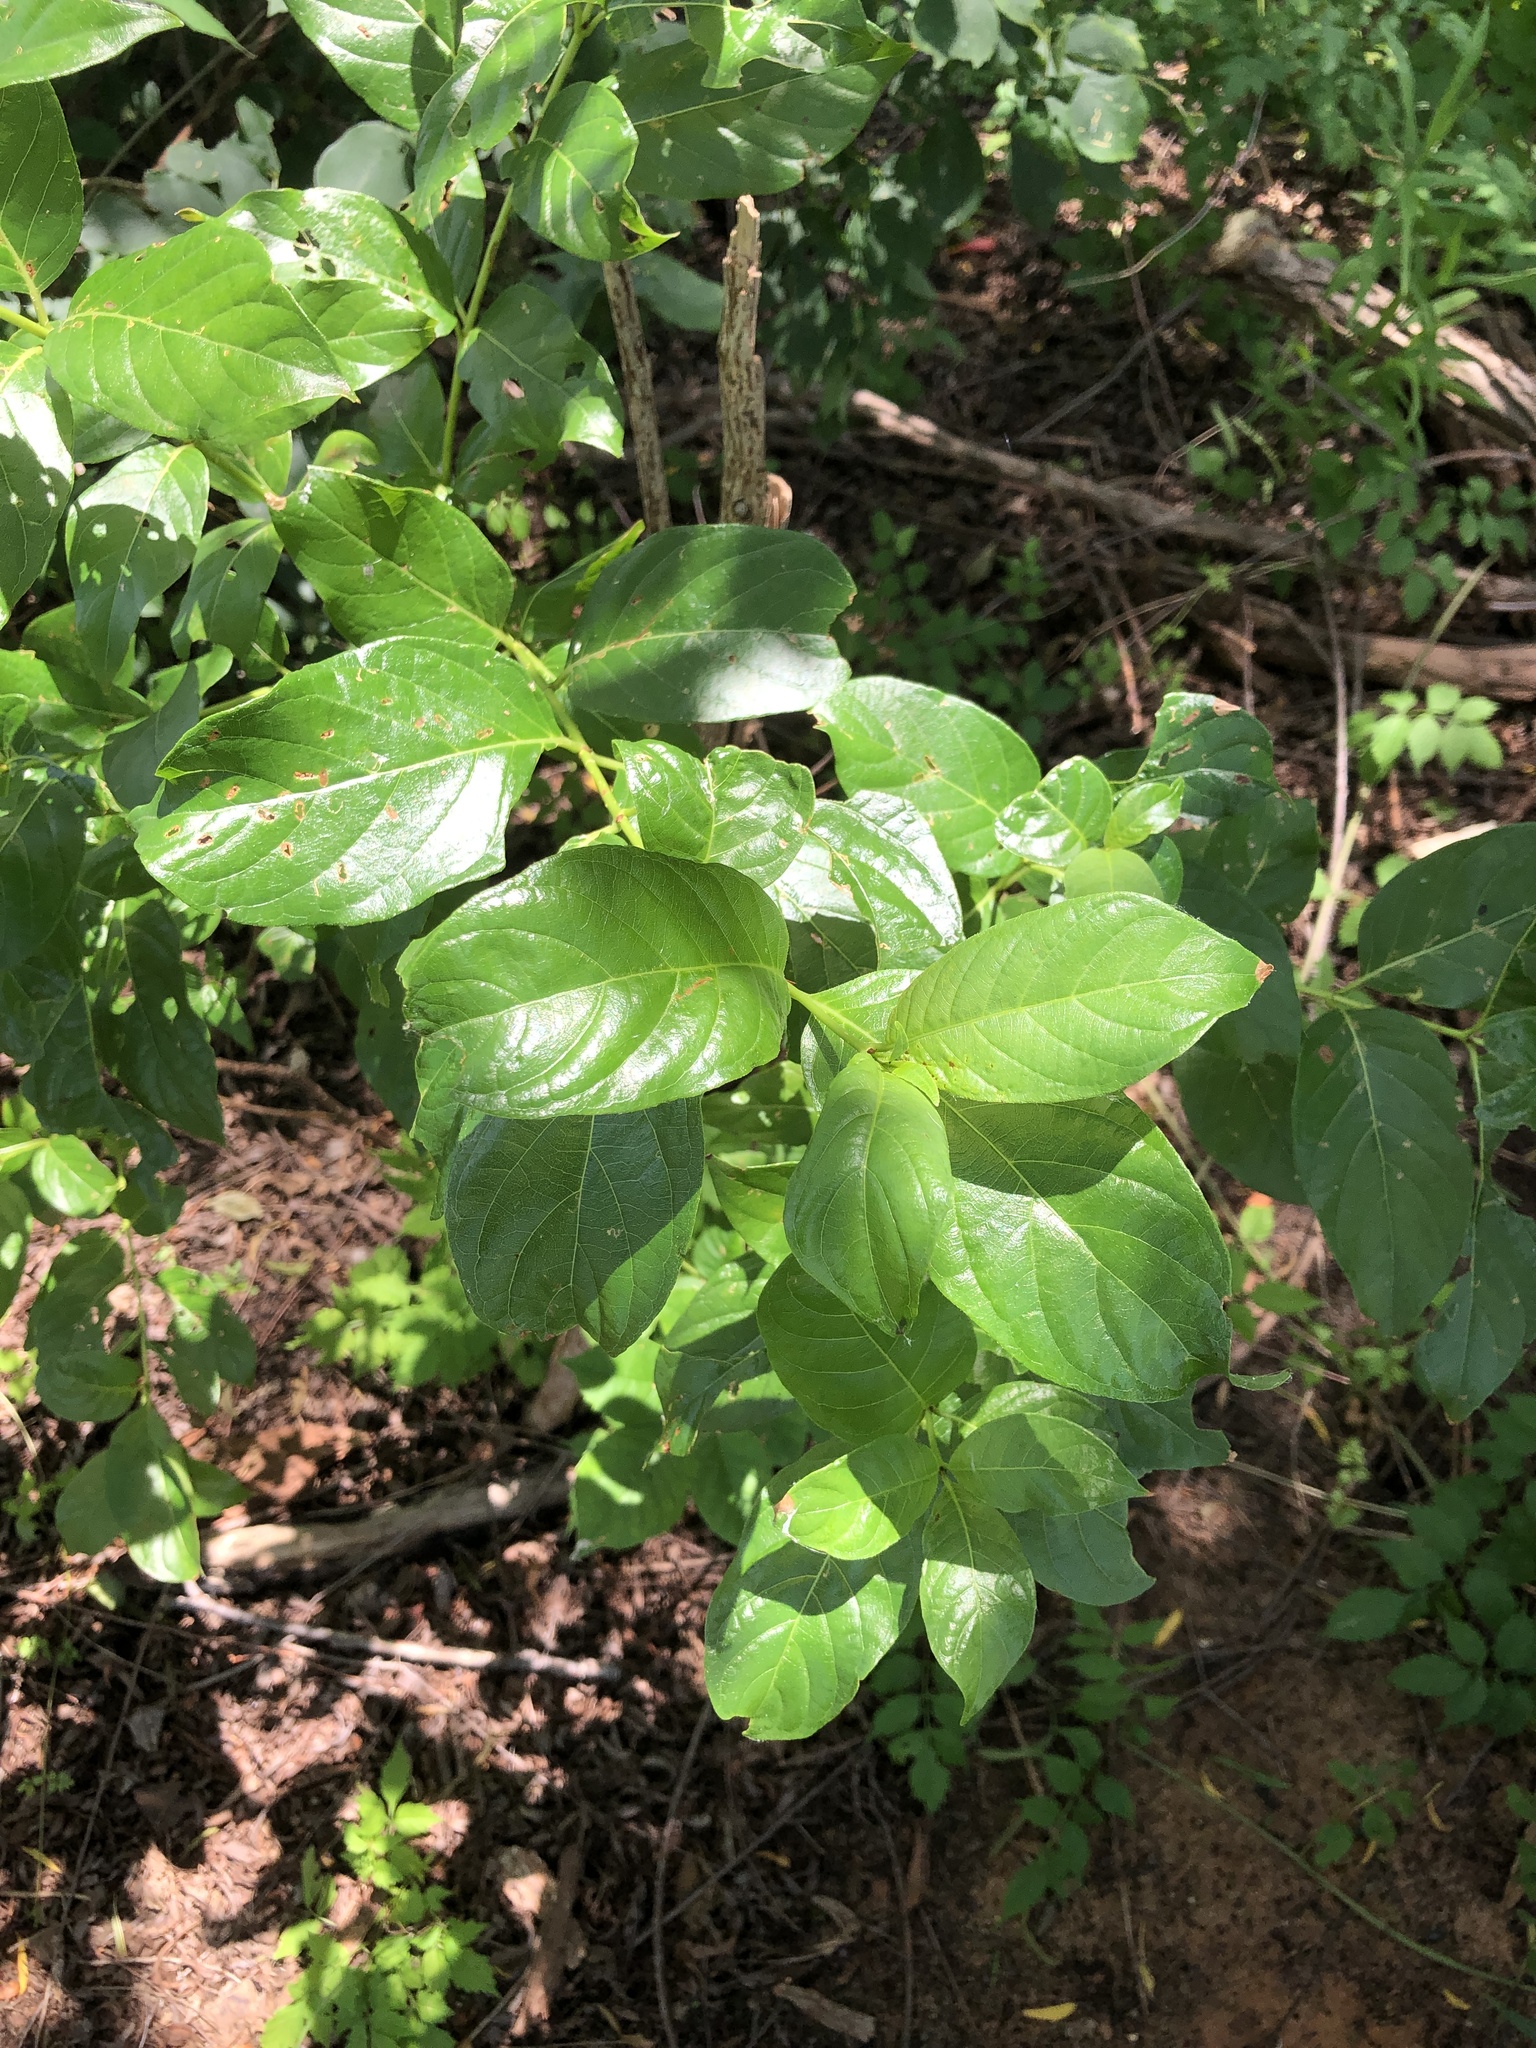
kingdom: Plantae
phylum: Tracheophyta
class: Magnoliopsida
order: Gentianales
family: Rubiaceae
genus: Cephalanthus
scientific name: Cephalanthus occidentalis
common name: Button-willow
